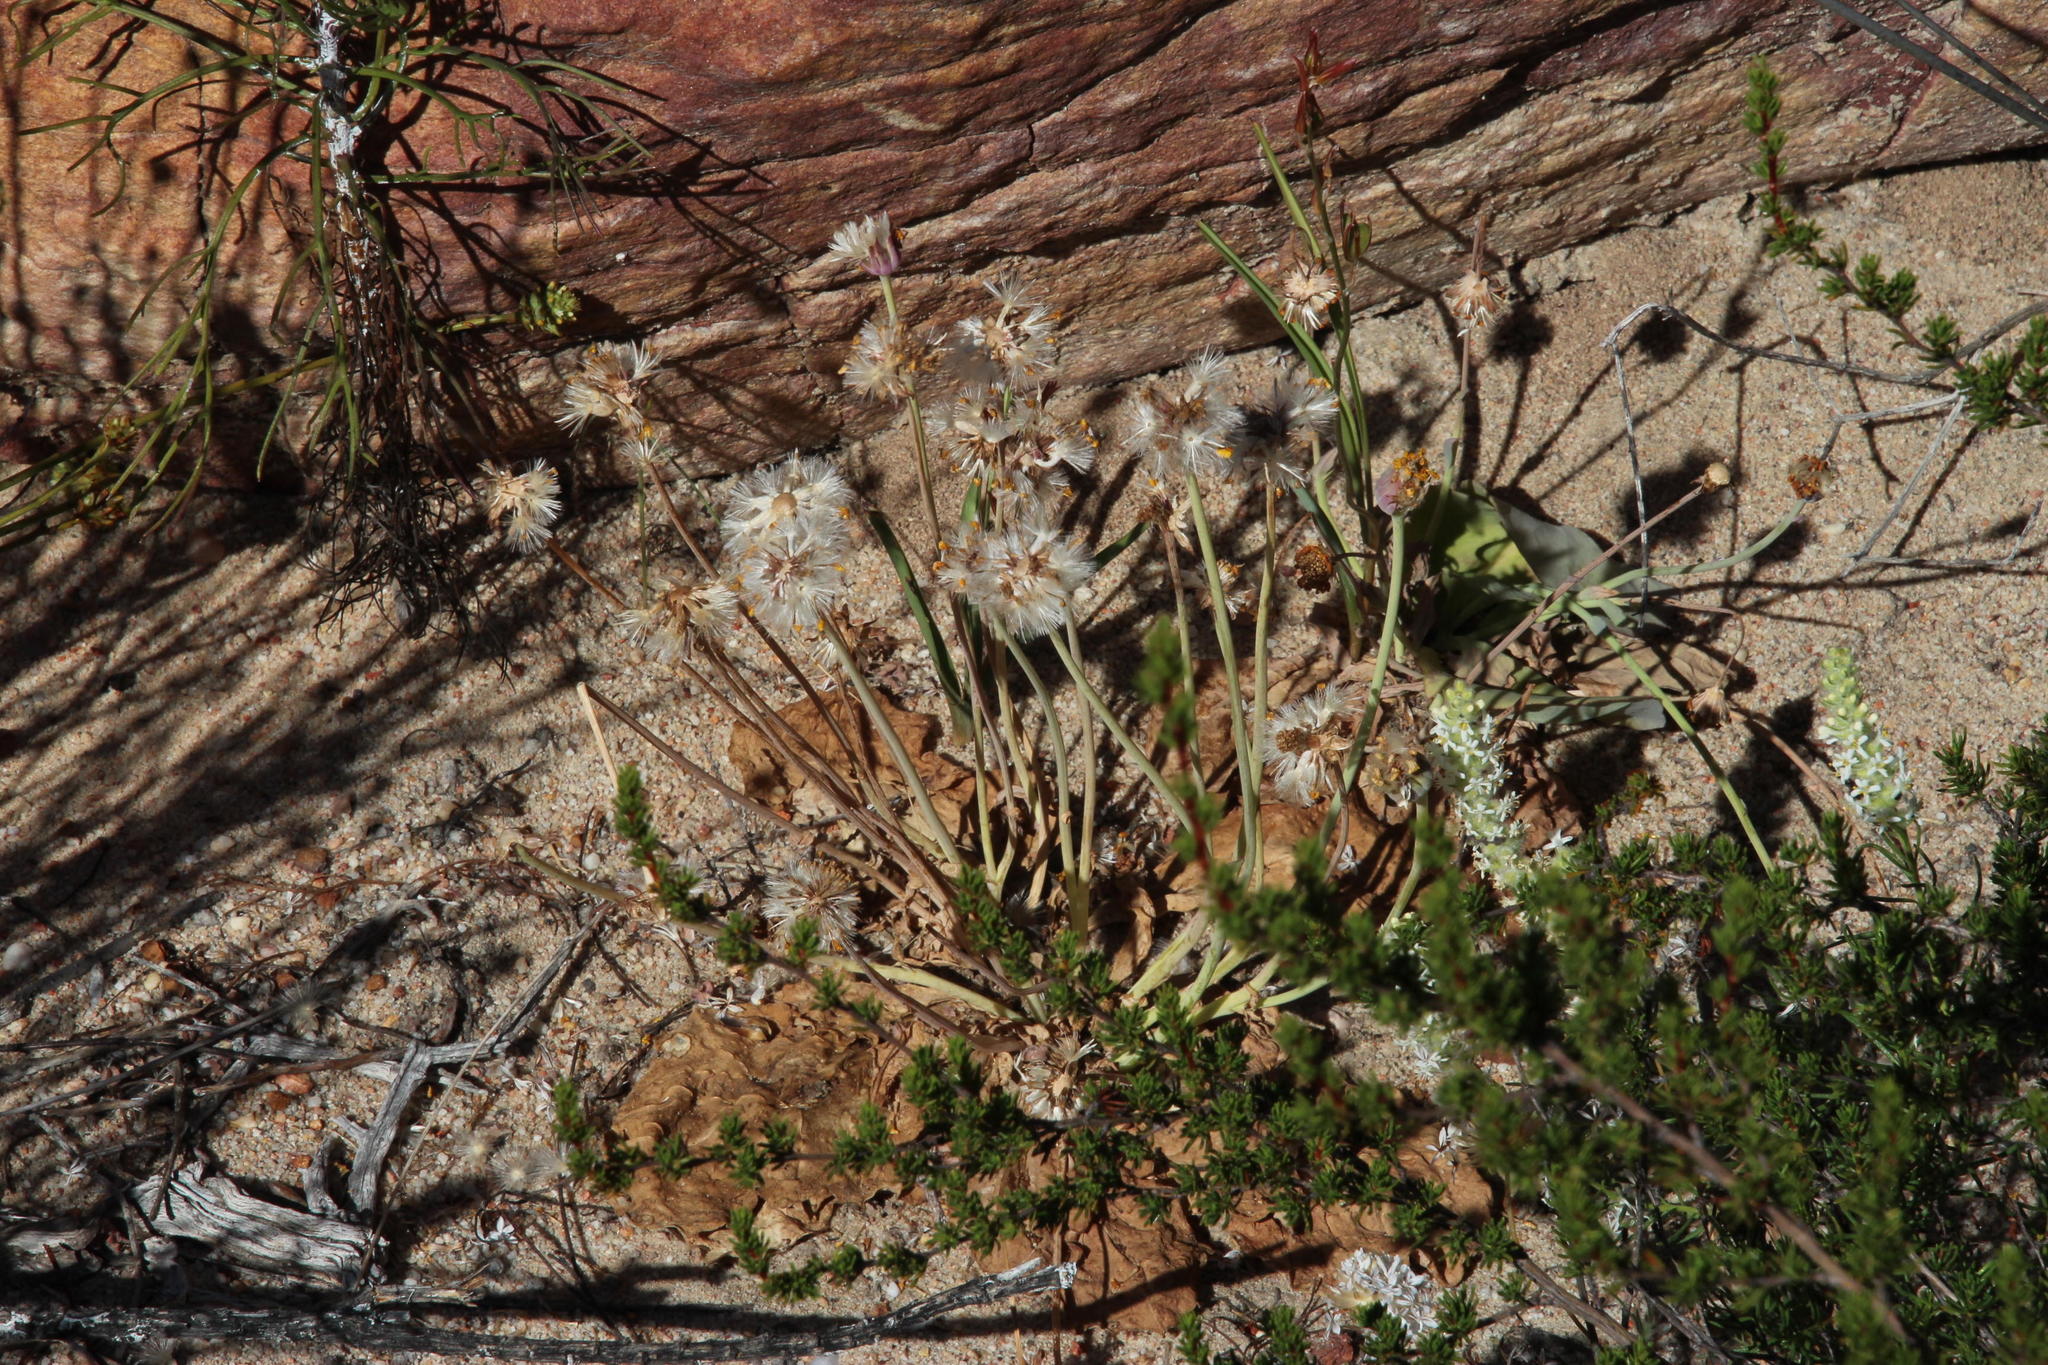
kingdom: Plantae
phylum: Tracheophyta
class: Magnoliopsida
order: Asterales
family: Asteraceae
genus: Othonna
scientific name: Othonna petiolaris
